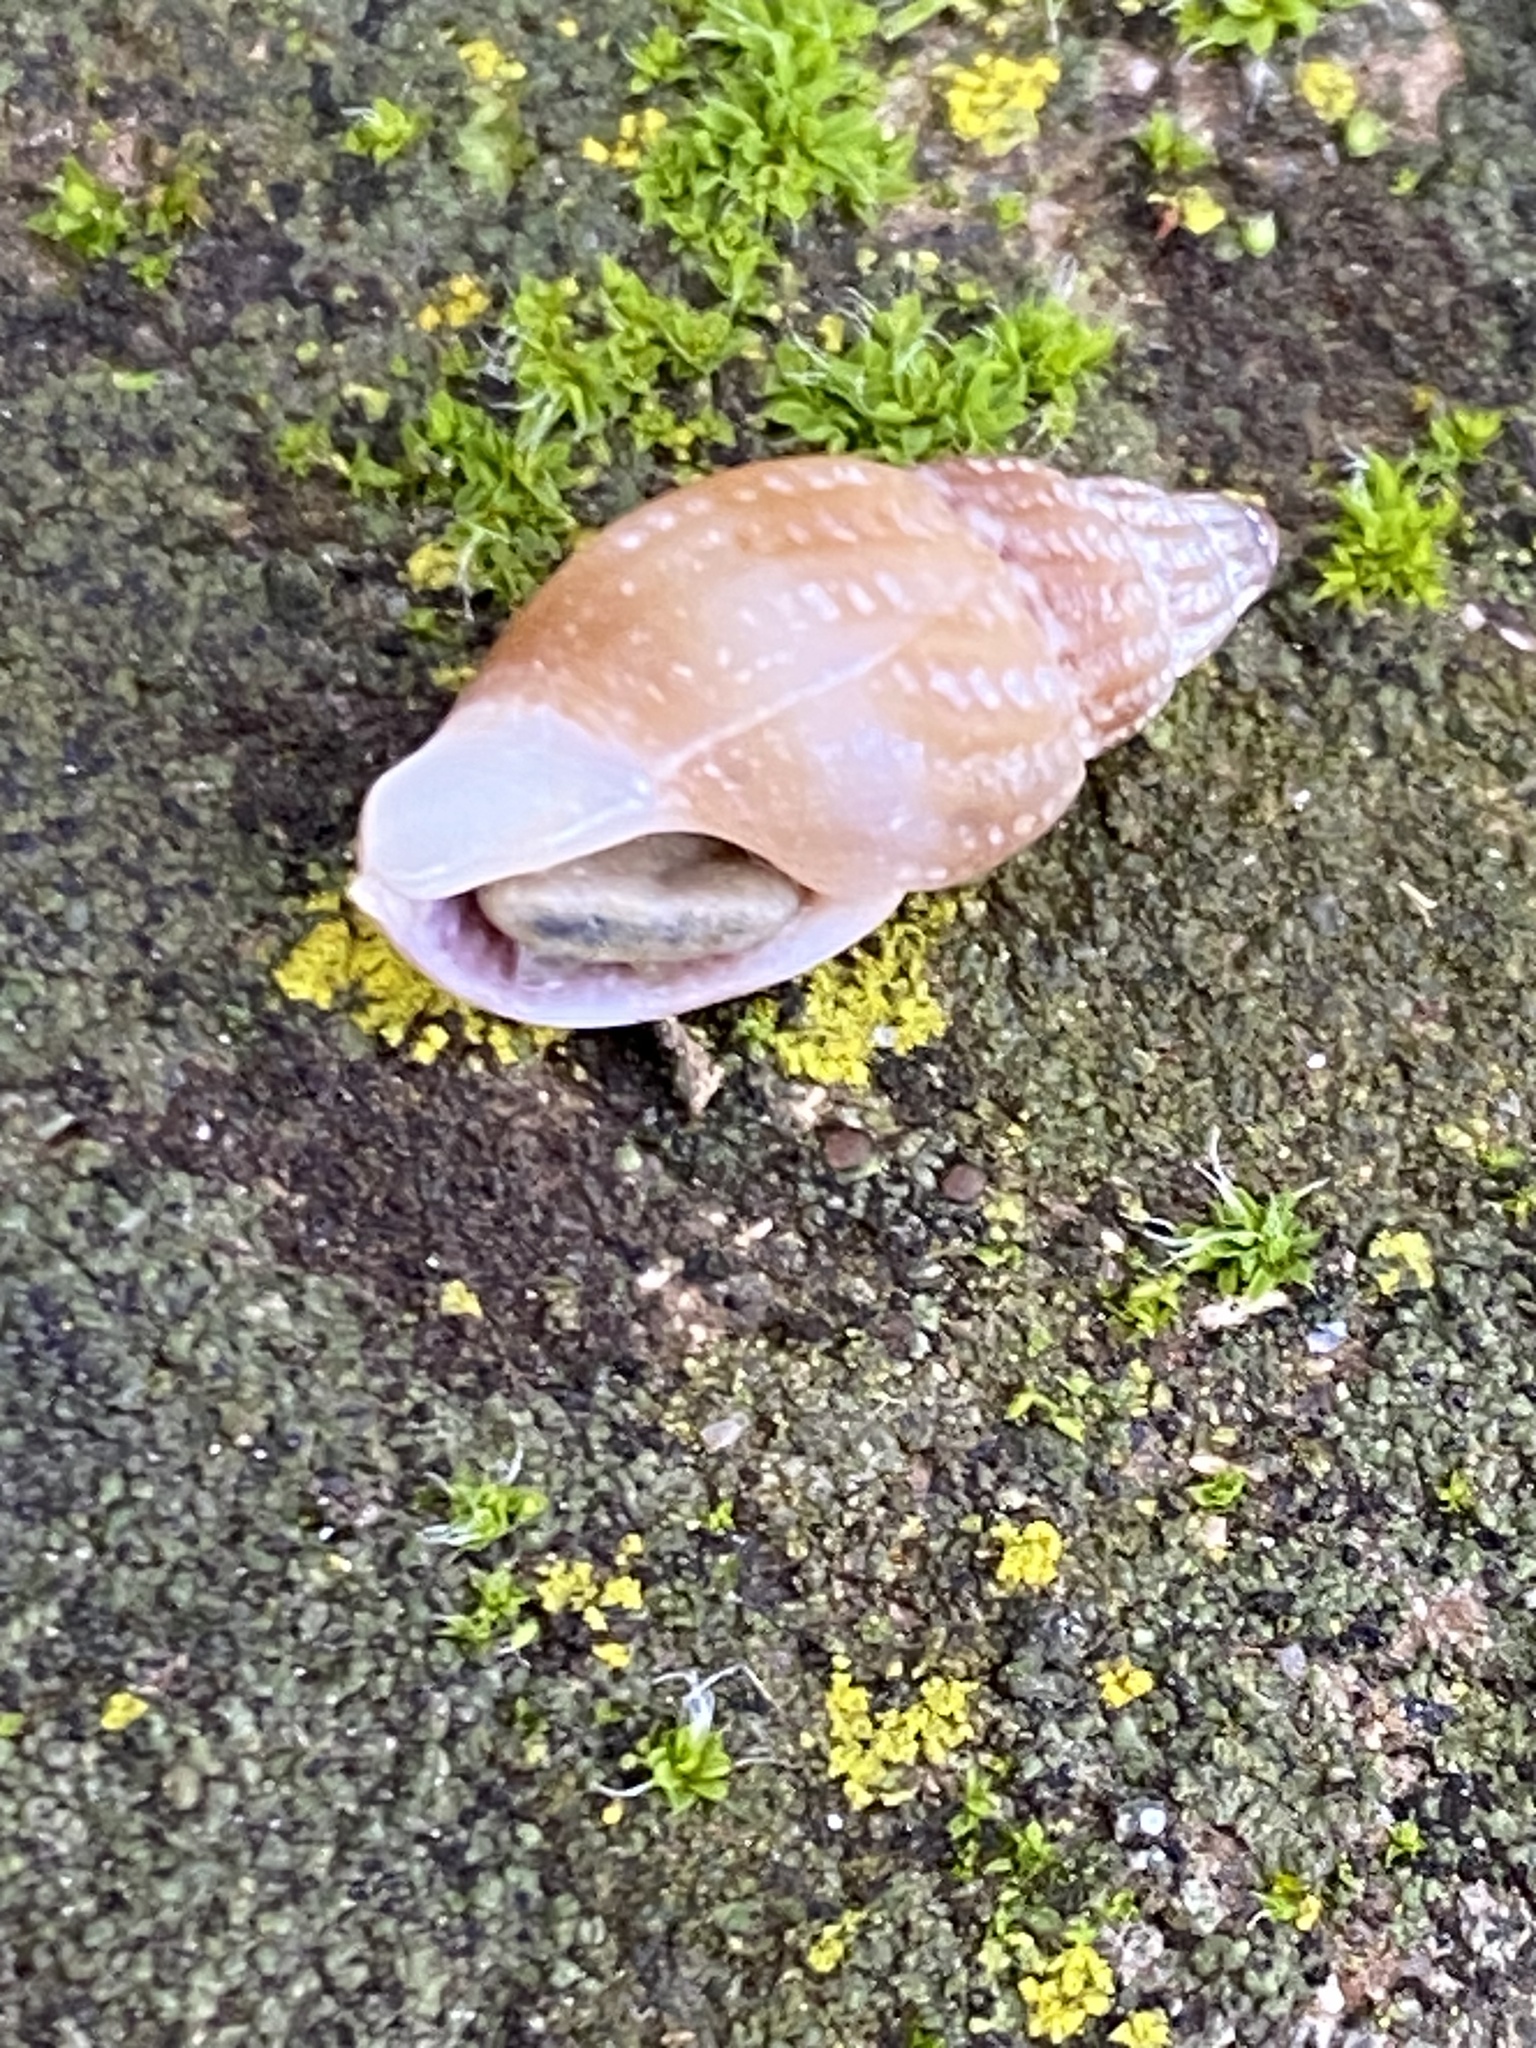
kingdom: Animalia
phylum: Mollusca
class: Gastropoda
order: Neogastropoda
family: Columbellidae
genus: Amphissa
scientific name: Amphissa versicolor
